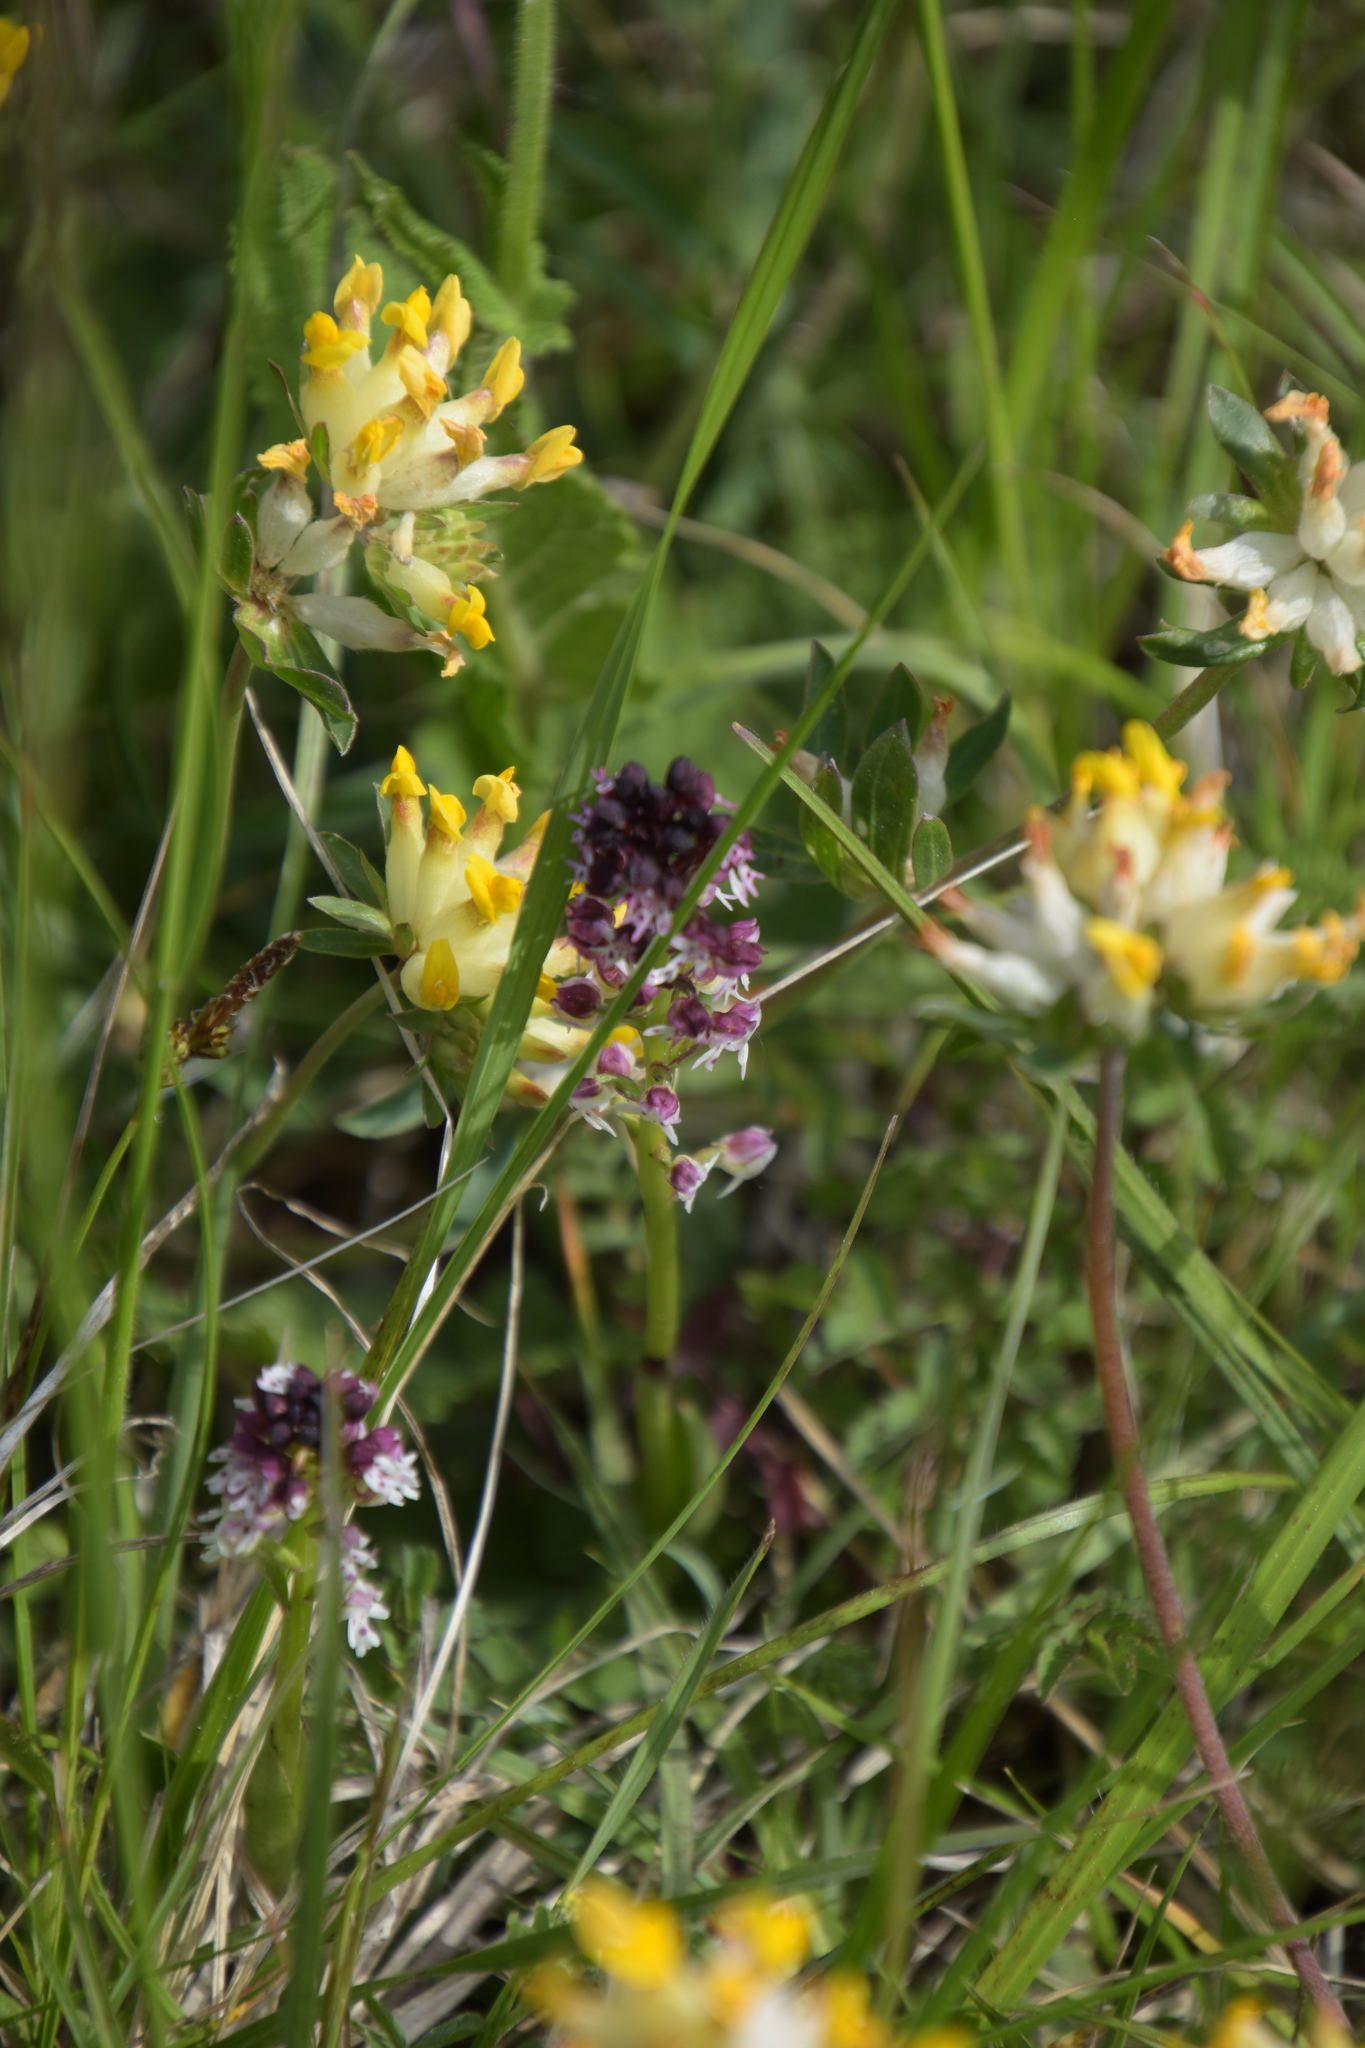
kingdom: Plantae
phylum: Tracheophyta
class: Liliopsida
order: Asparagales
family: Orchidaceae
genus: Neotinea
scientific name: Neotinea ustulata
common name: Burnt orchid
